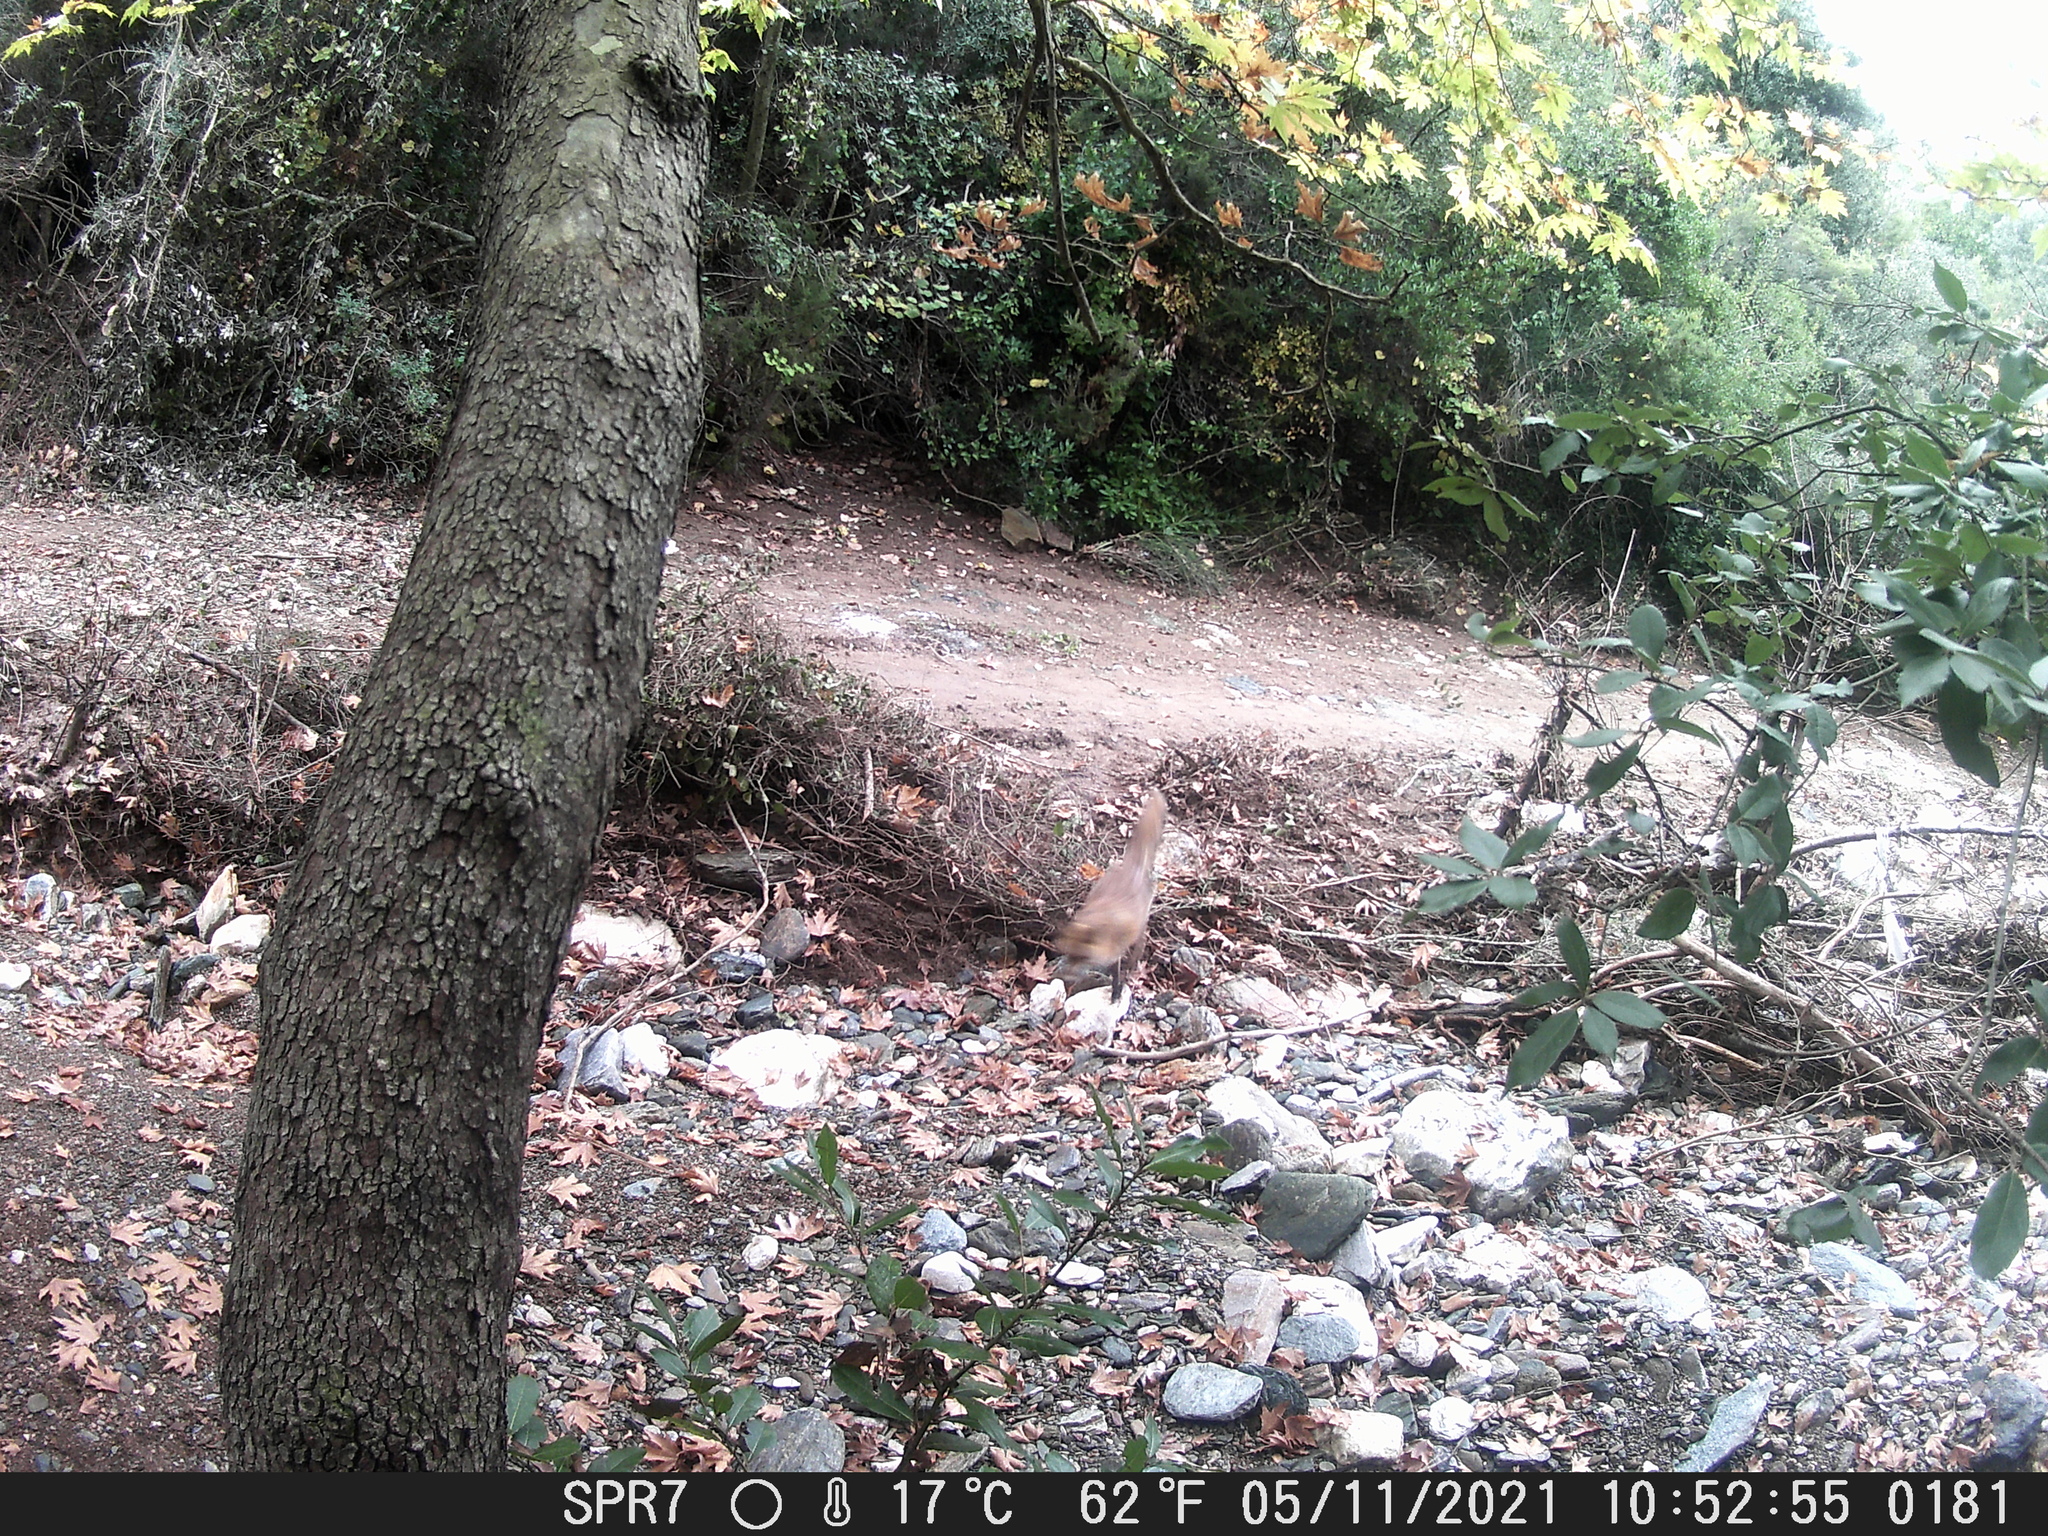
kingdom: Animalia
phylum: Chordata
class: Mammalia
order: Carnivora
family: Canidae
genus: Vulpes
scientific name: Vulpes vulpes
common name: Red fox
